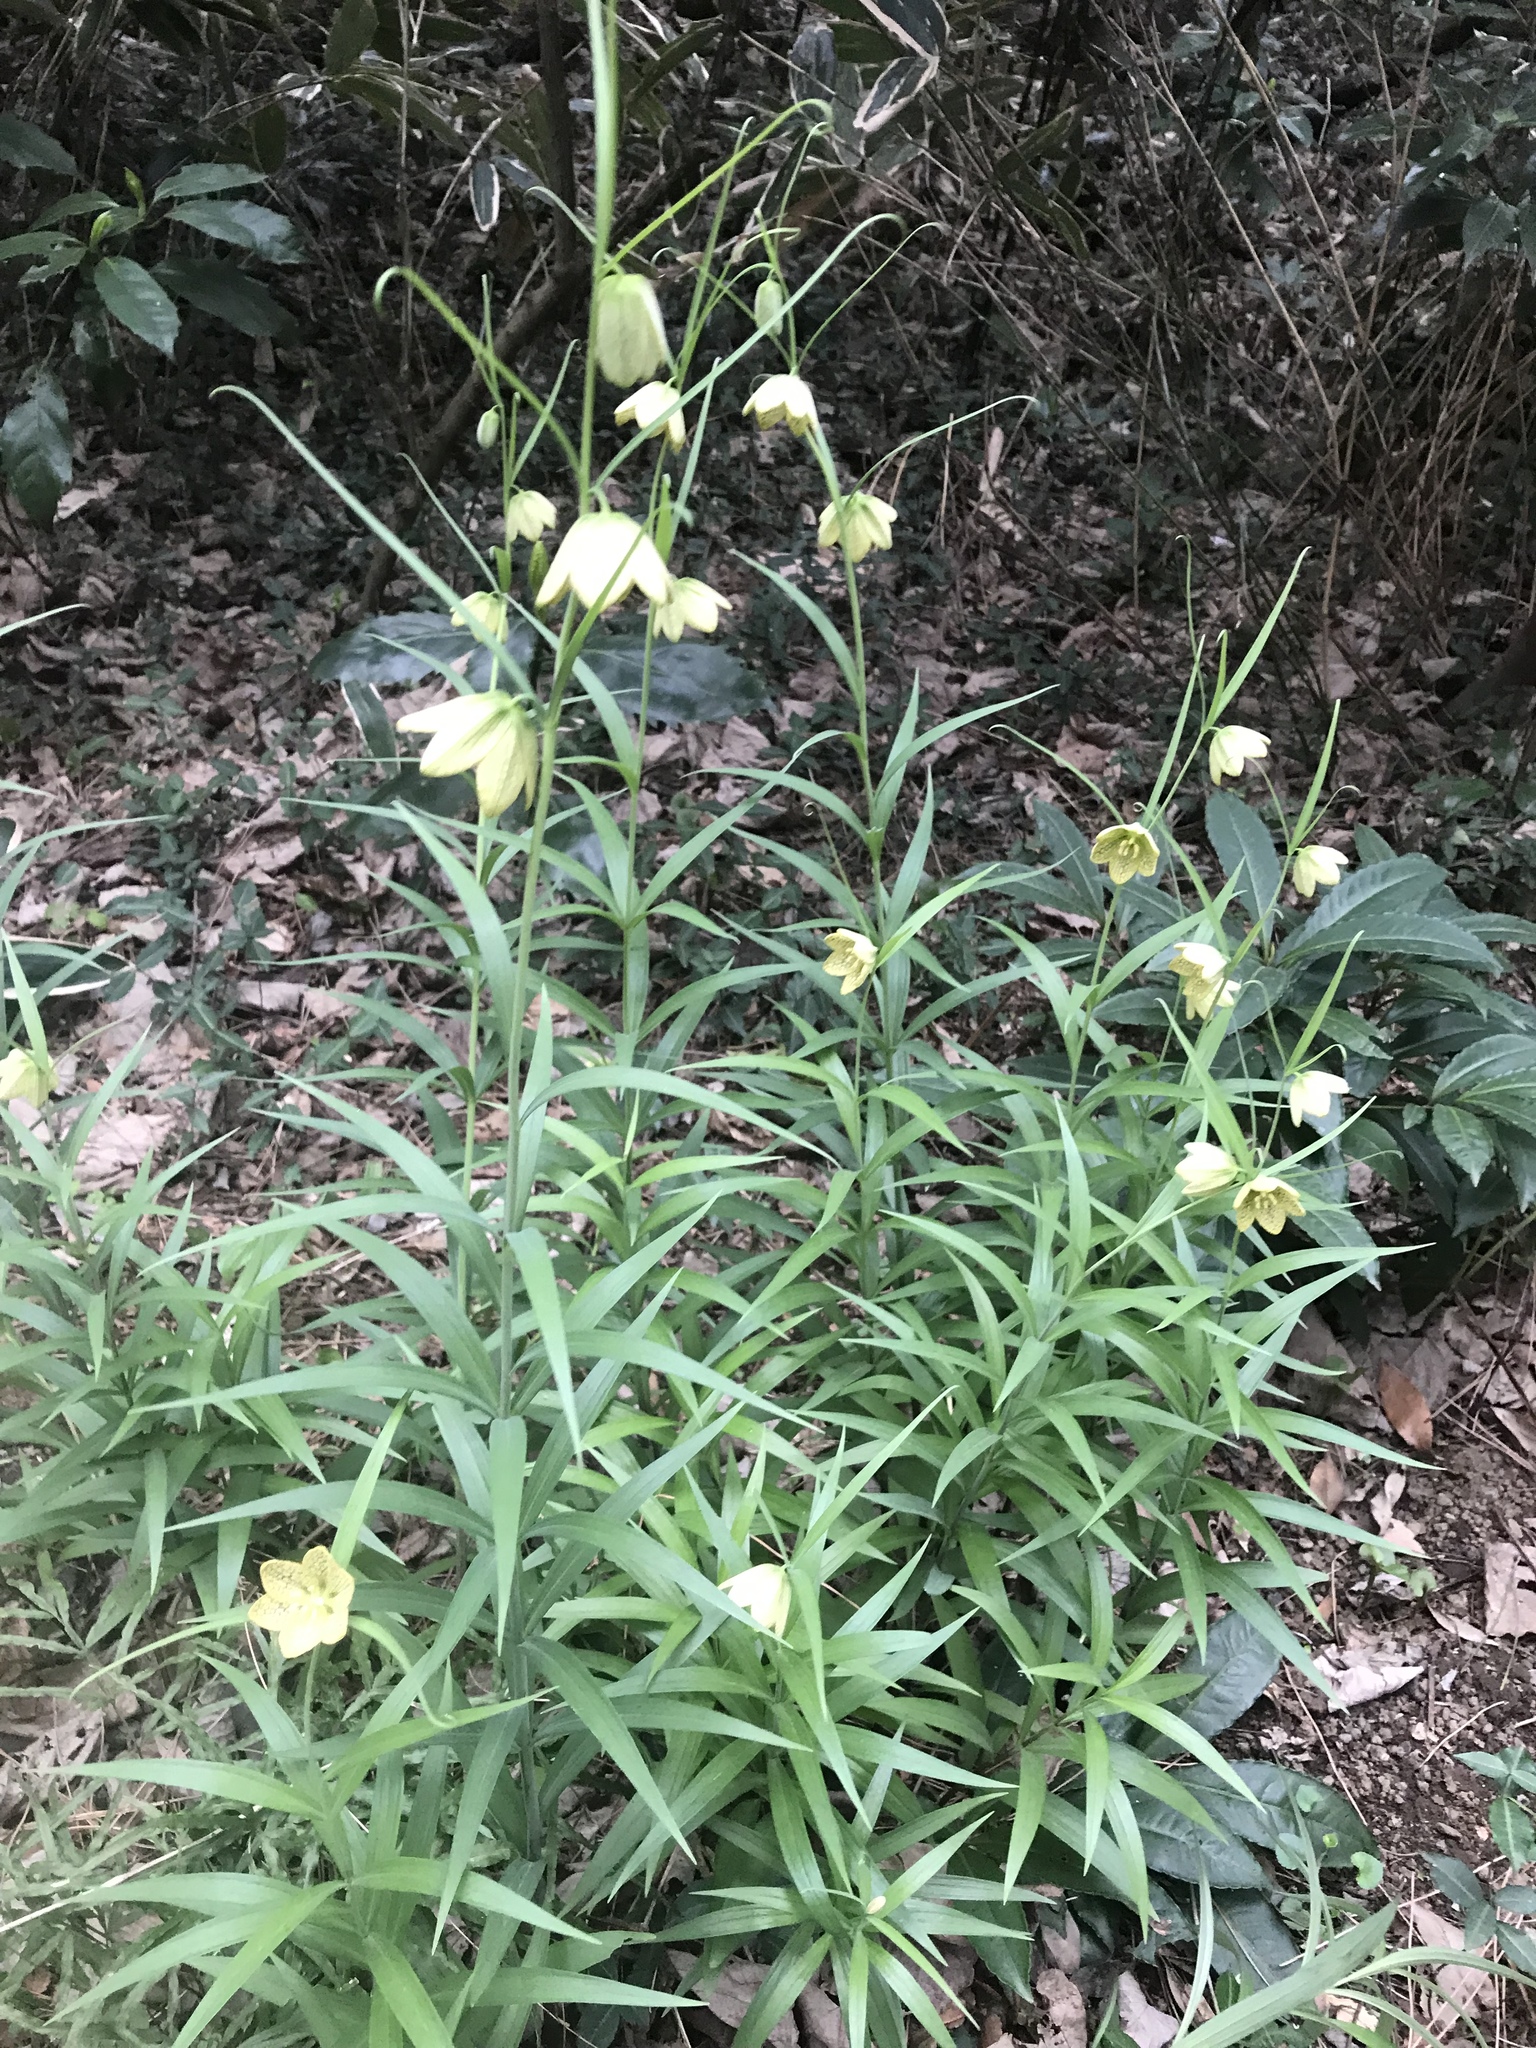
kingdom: Plantae
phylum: Tracheophyta
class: Liliopsida
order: Liliales
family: Liliaceae
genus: Fritillaria
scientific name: Fritillaria thunbergii
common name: Zhejiang fritillary
